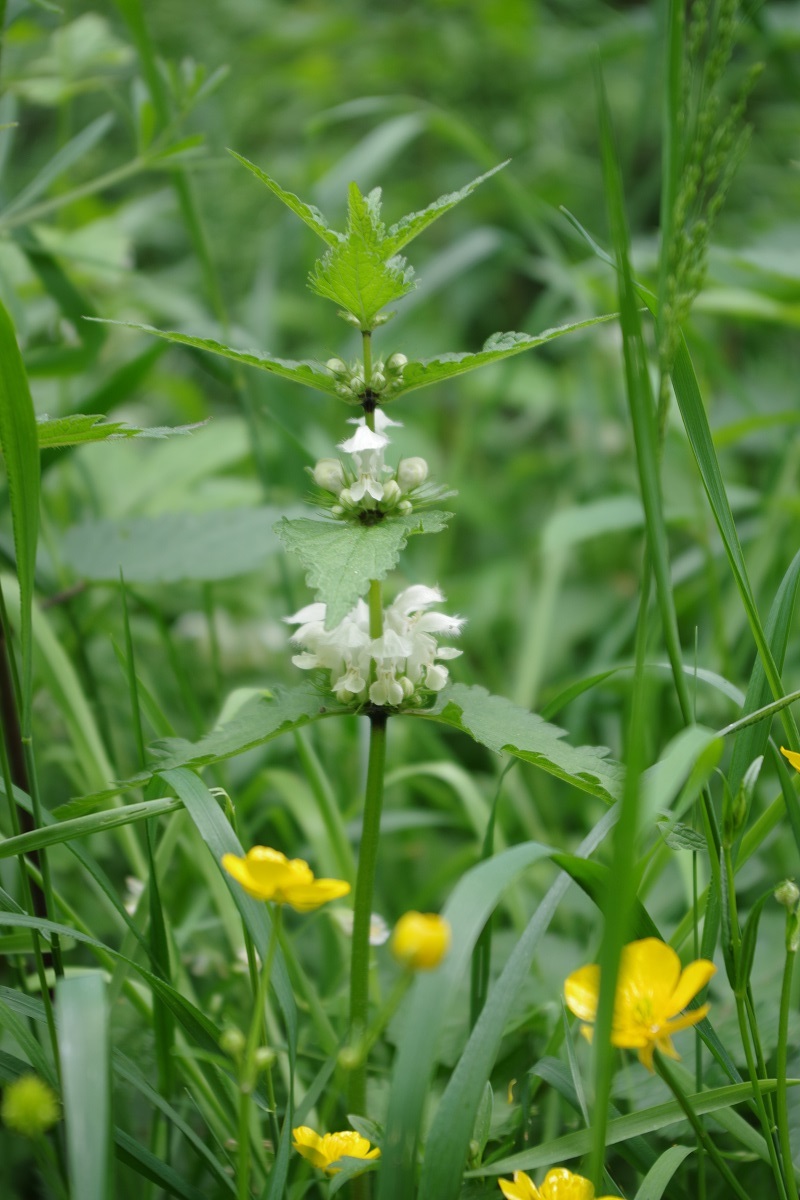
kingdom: Plantae
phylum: Tracheophyta
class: Magnoliopsida
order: Lamiales
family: Lamiaceae
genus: Lamium
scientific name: Lamium album
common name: White dead-nettle
